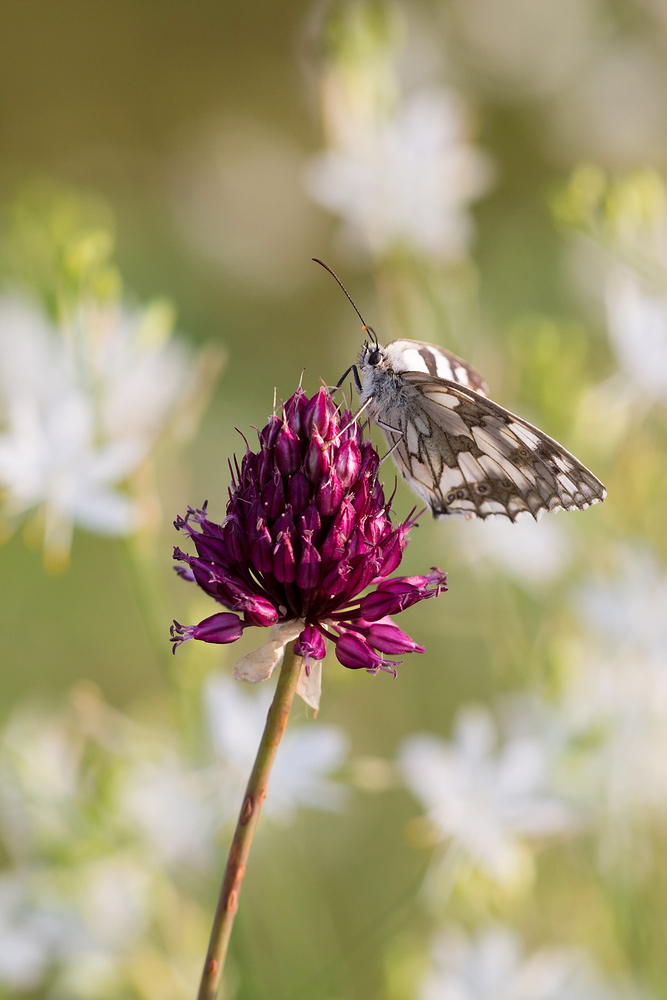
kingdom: Animalia
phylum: Arthropoda
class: Insecta
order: Lepidoptera
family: Nymphalidae
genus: Melanargia
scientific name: Melanargia galathea
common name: Marbled white
